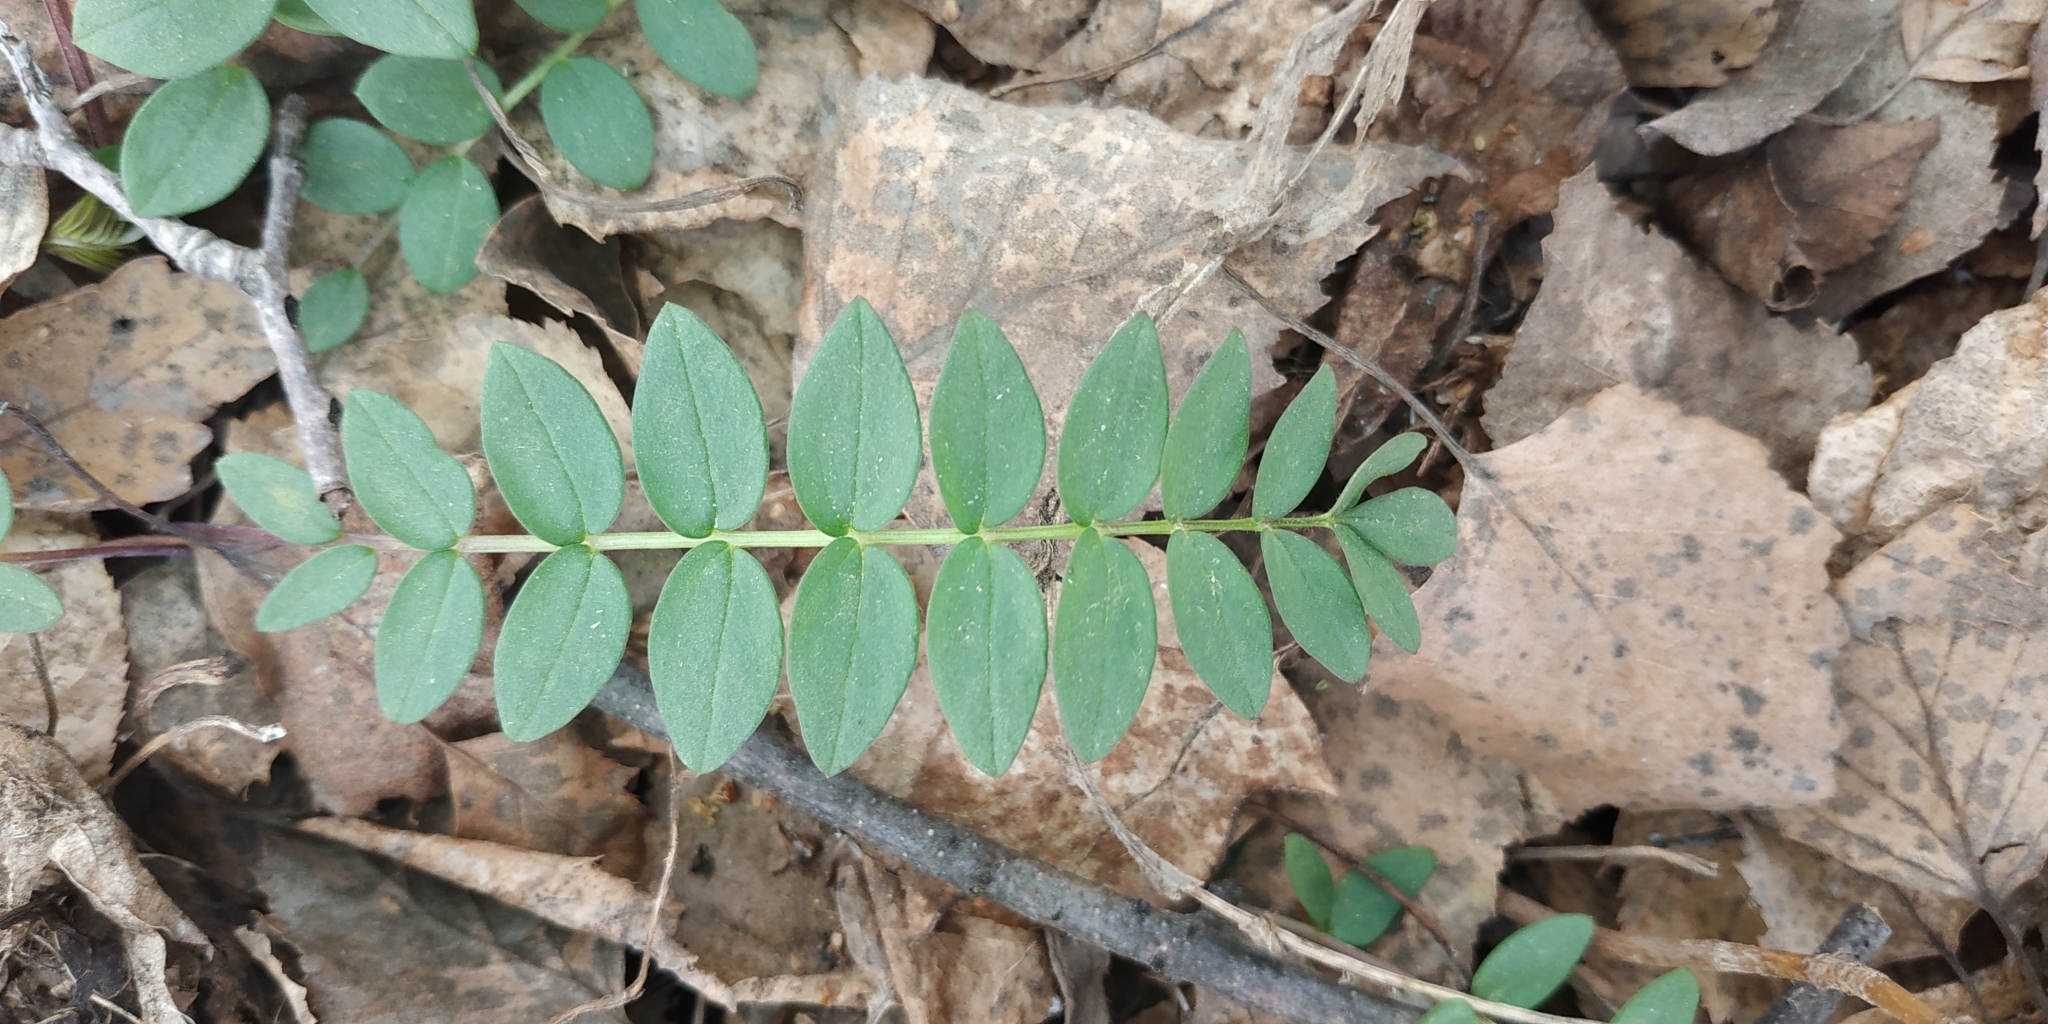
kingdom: Plantae
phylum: Tracheophyta
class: Magnoliopsida
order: Ericales
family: Polemoniaceae
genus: Polemonium
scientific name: Polemonium caeruleum
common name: Jacob's-ladder
